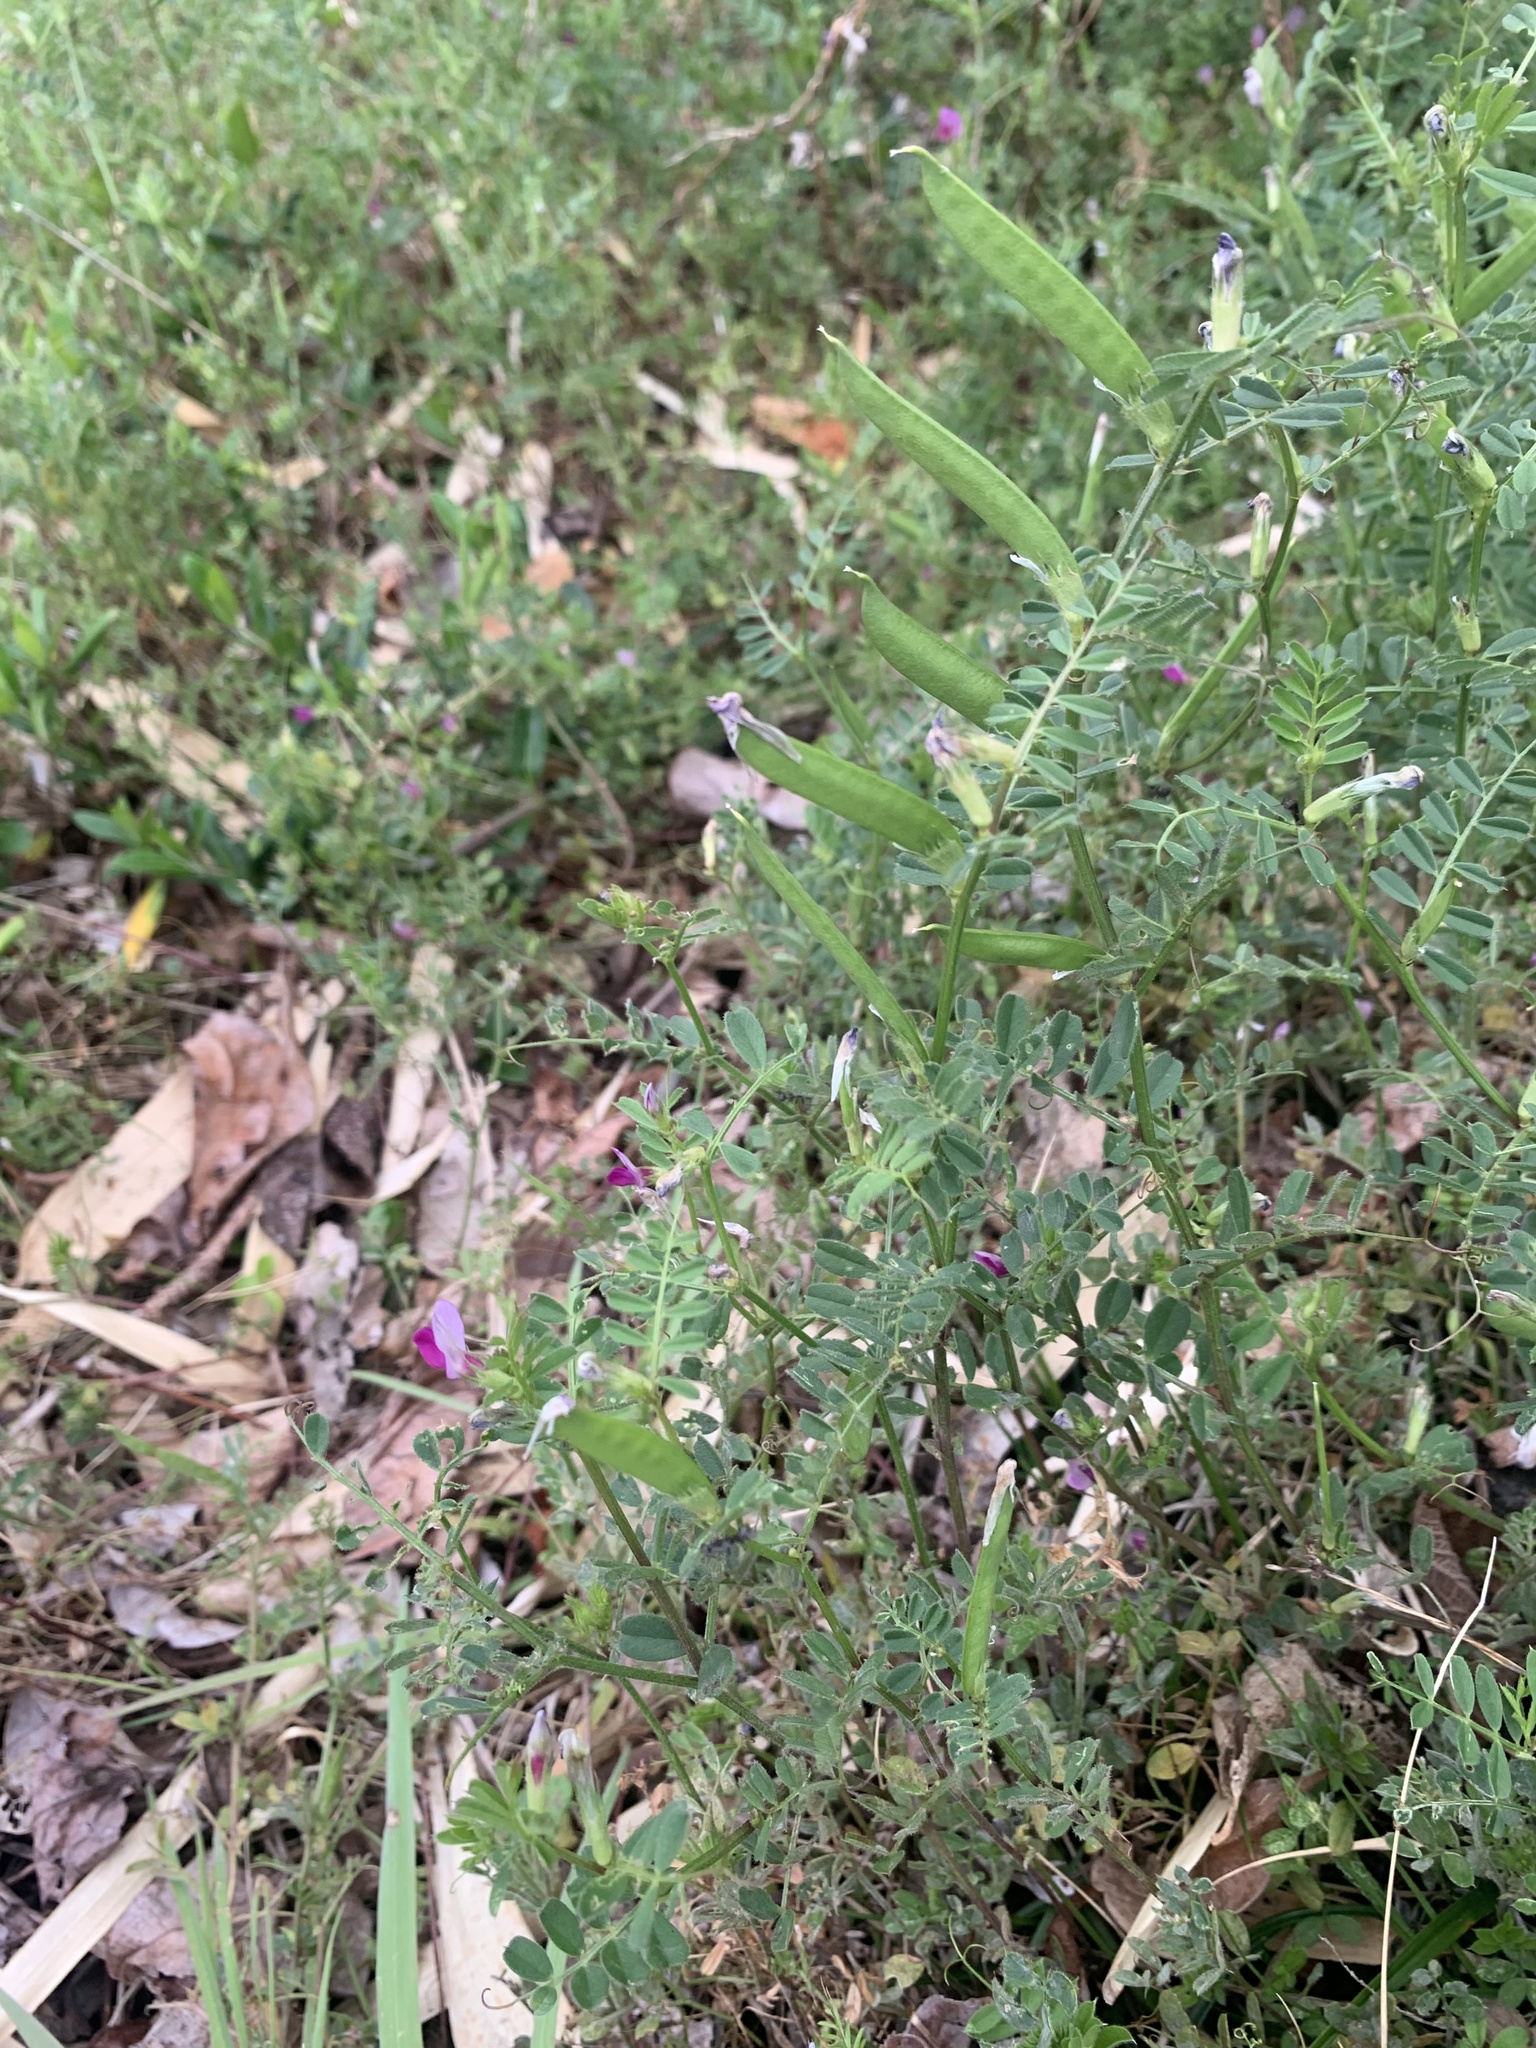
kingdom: Plantae
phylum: Tracheophyta
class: Magnoliopsida
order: Fabales
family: Fabaceae
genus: Vicia
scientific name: Vicia hirsuta
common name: Tiny vetch
